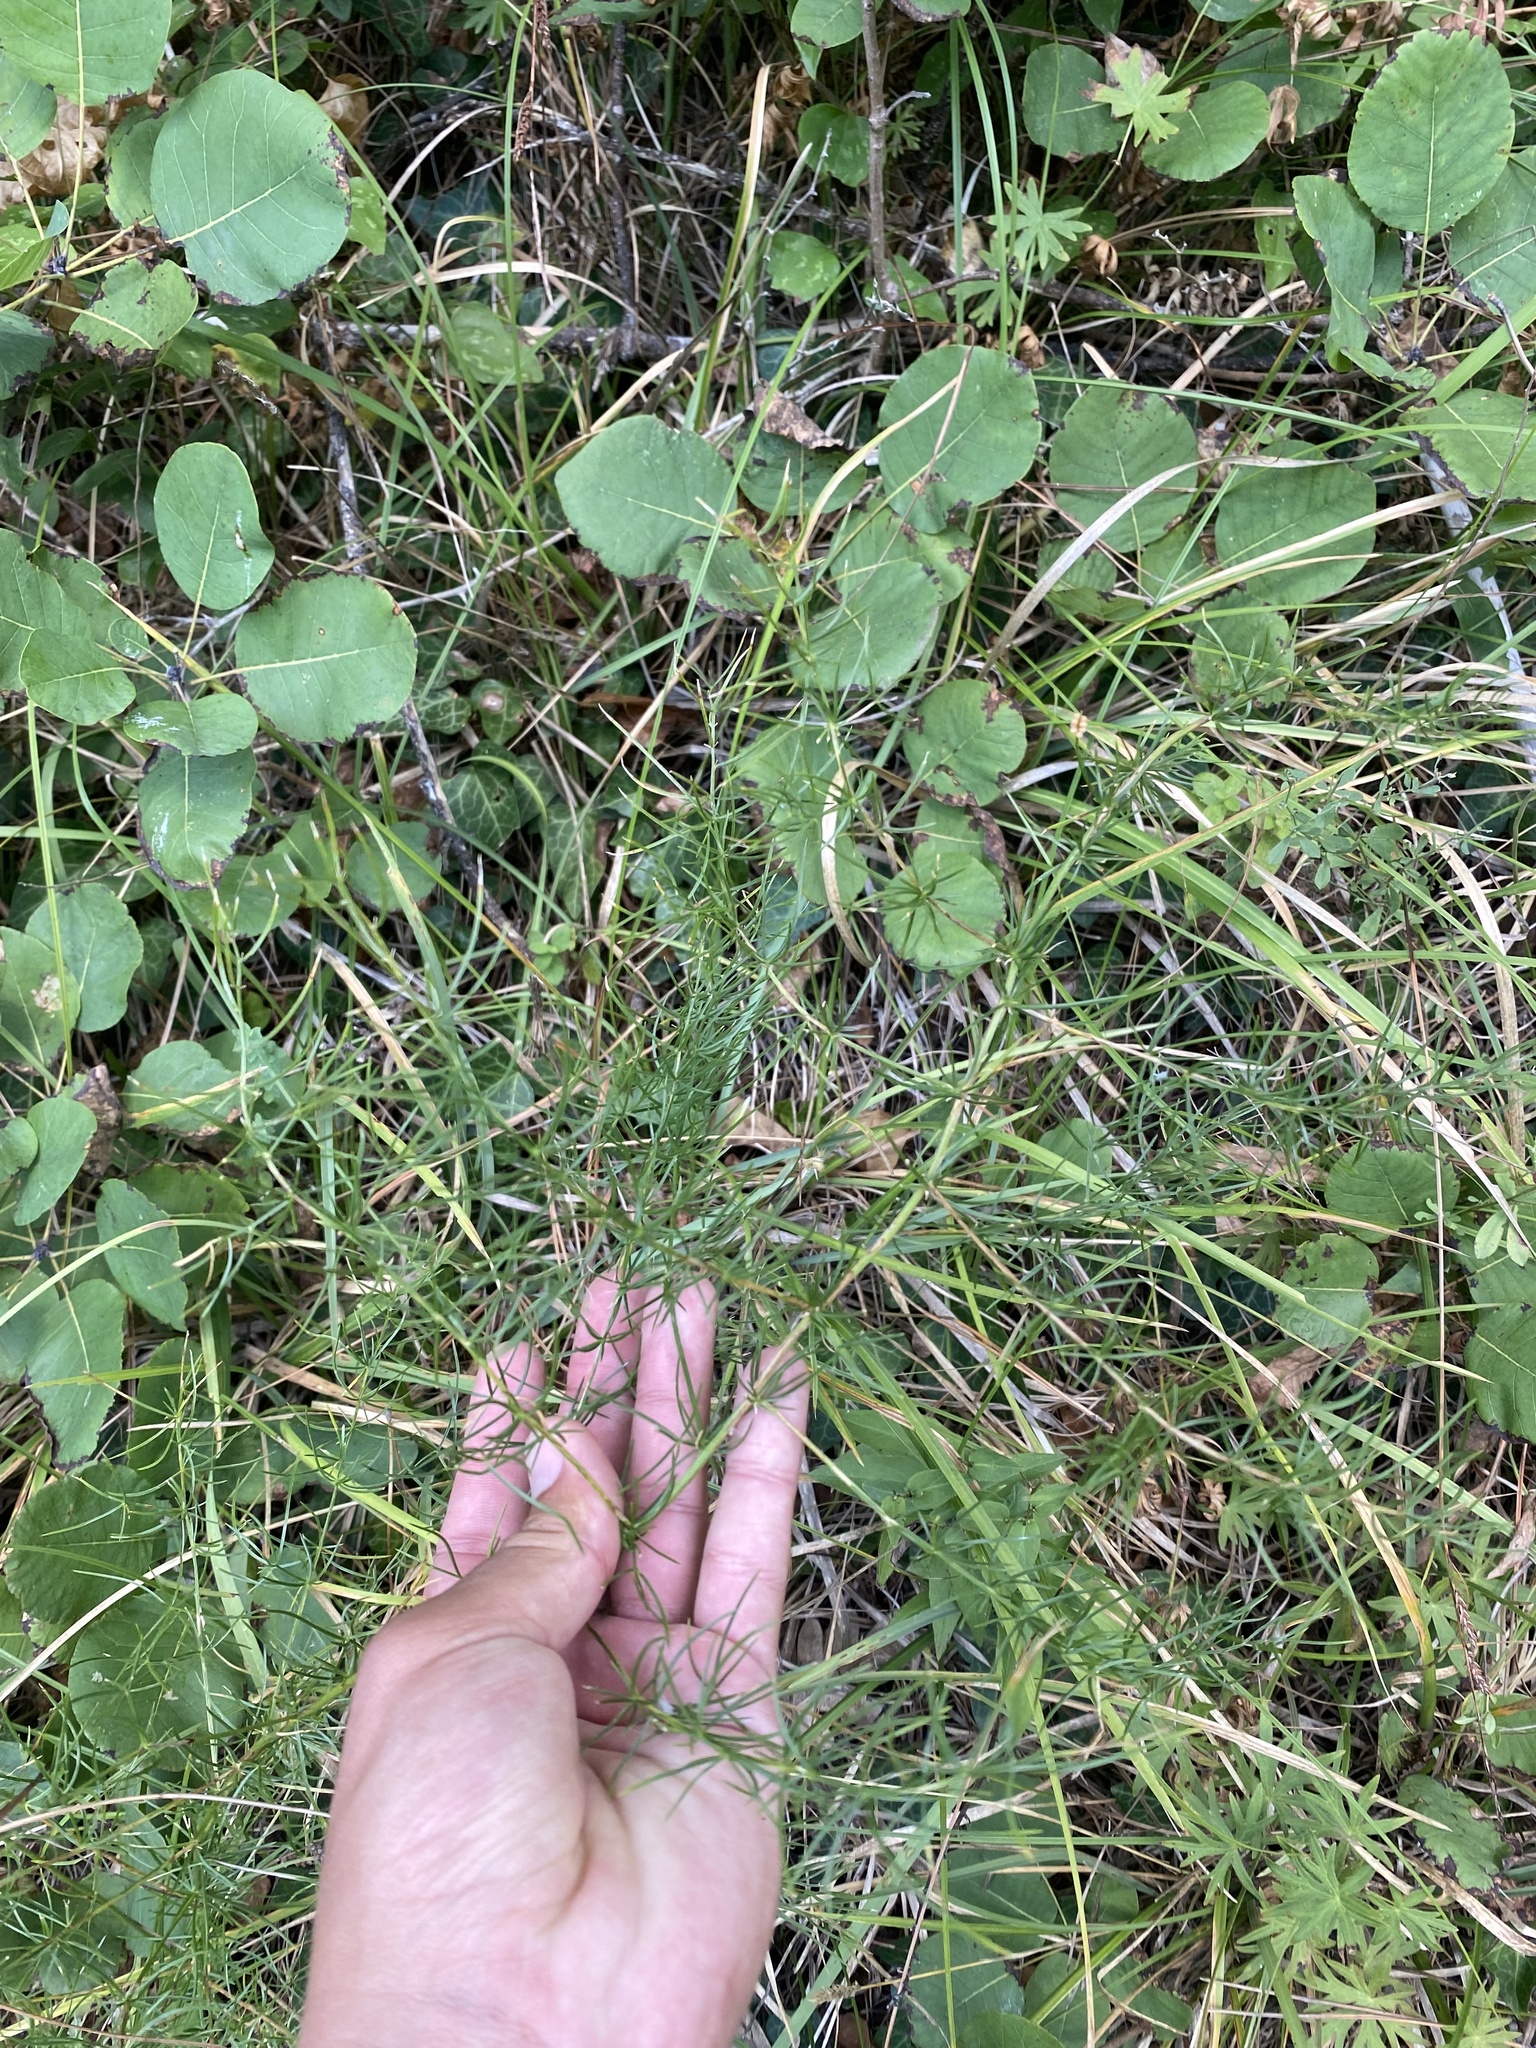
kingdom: Plantae
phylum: Tracheophyta
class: Liliopsida
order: Asparagales
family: Asparagaceae
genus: Asparagus
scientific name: Asparagus verticillatus
